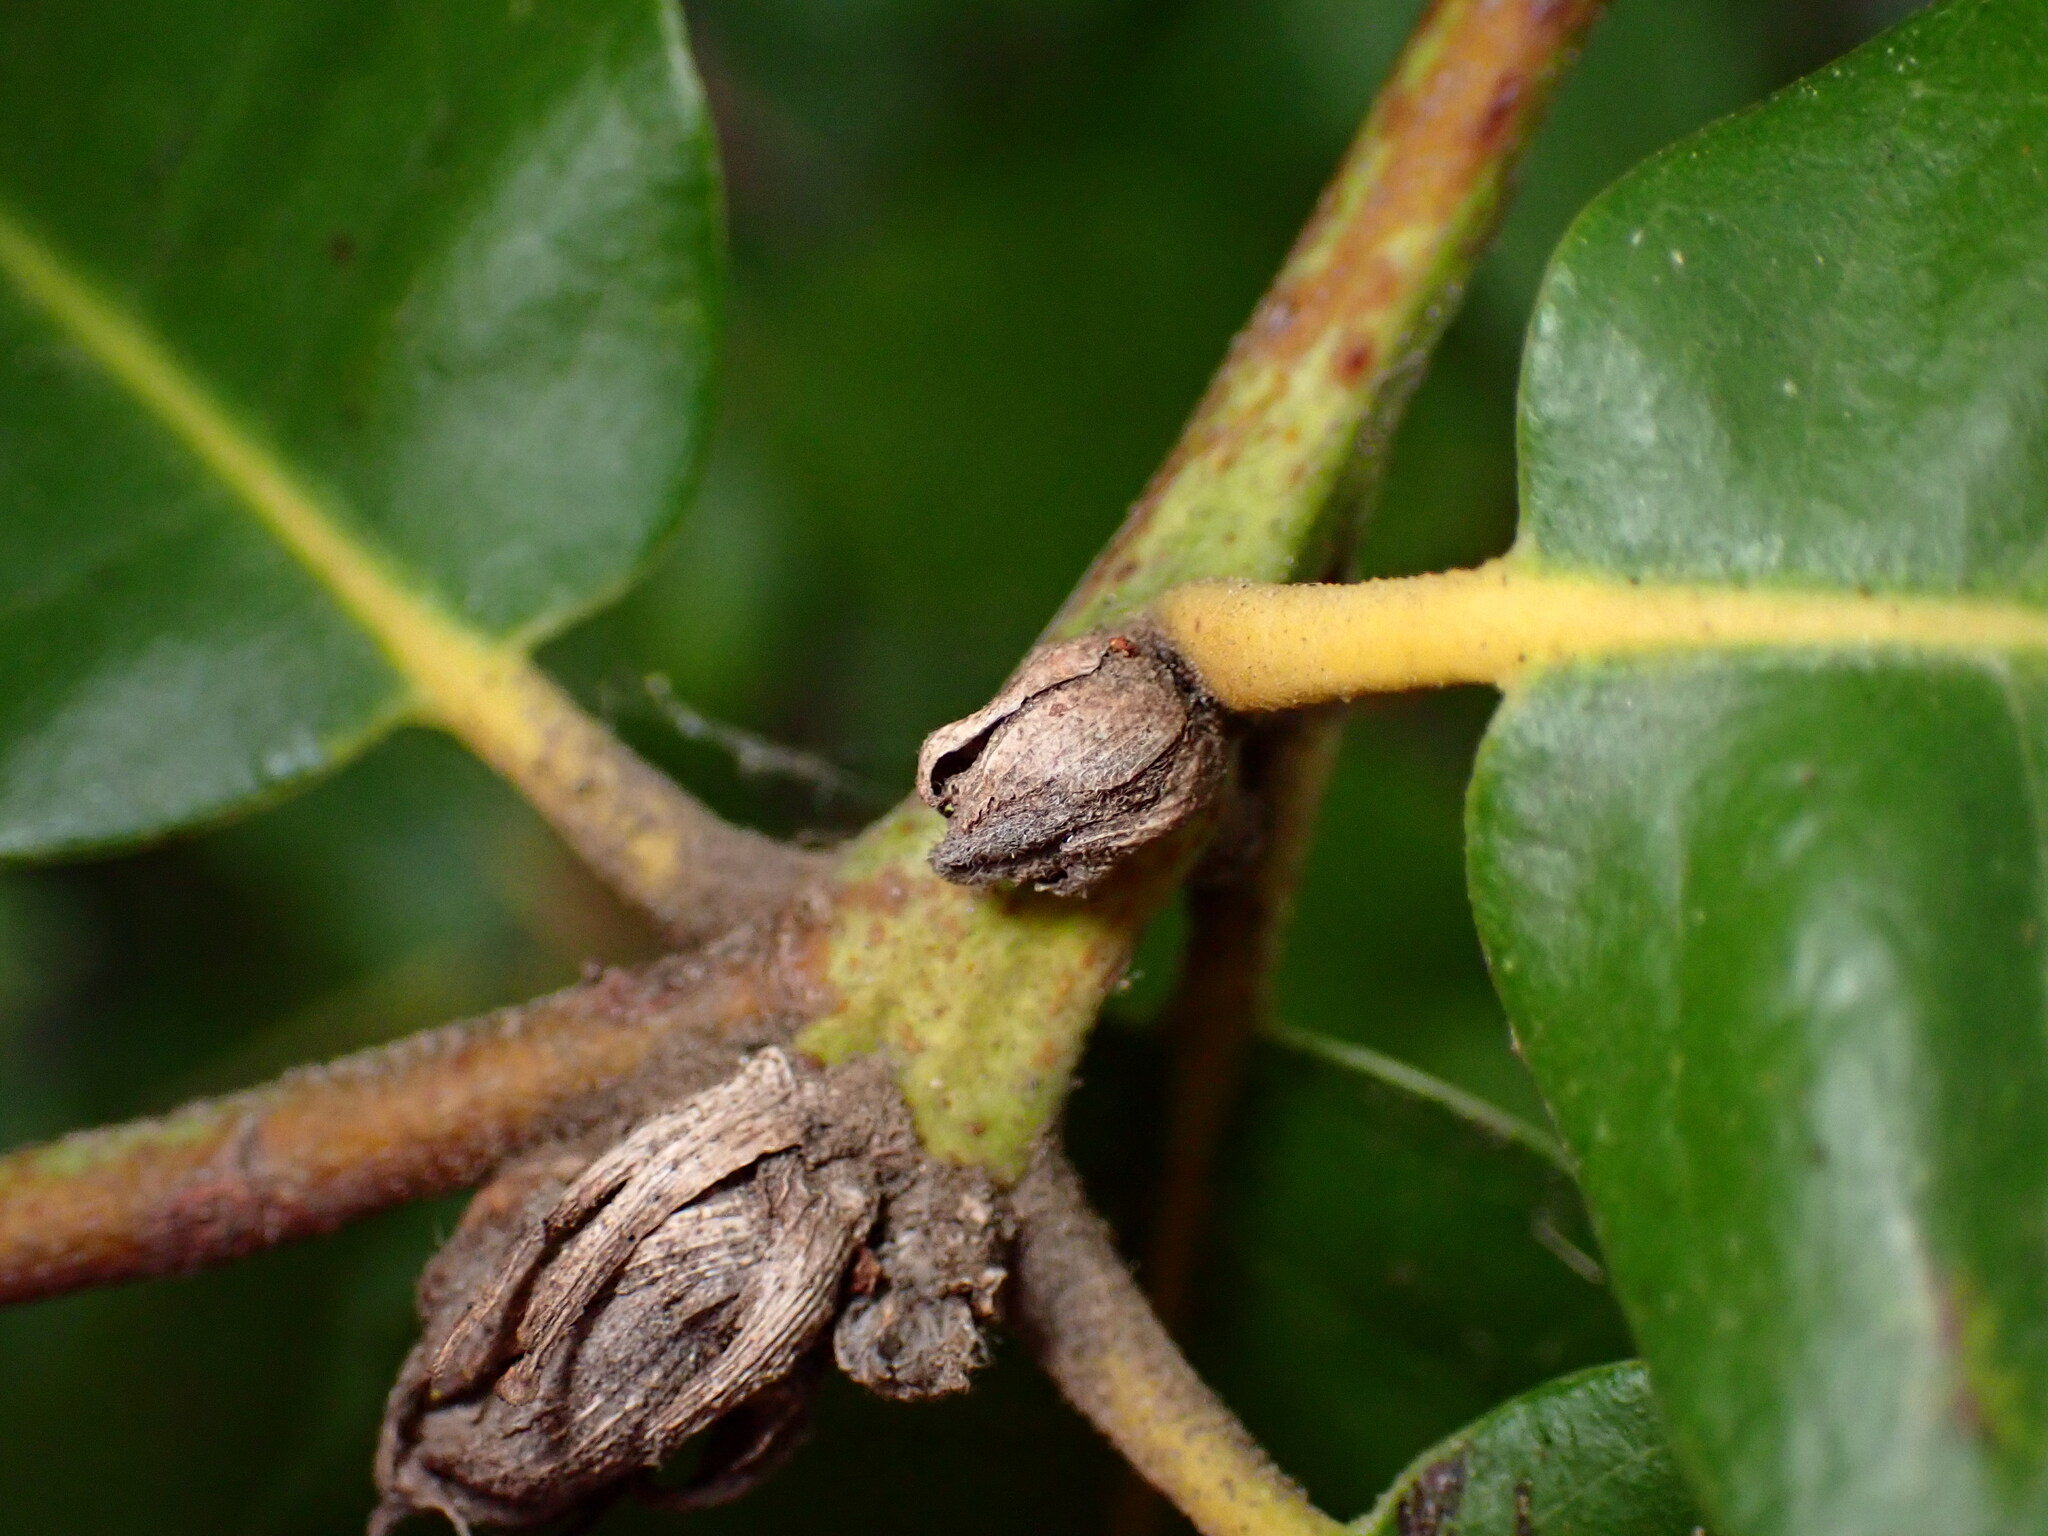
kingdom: Plantae
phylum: Tracheophyta
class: Magnoliopsida
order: Fagales
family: Fagaceae
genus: Notholithocarpus
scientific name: Notholithocarpus densiflorus
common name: Tan bark oak
